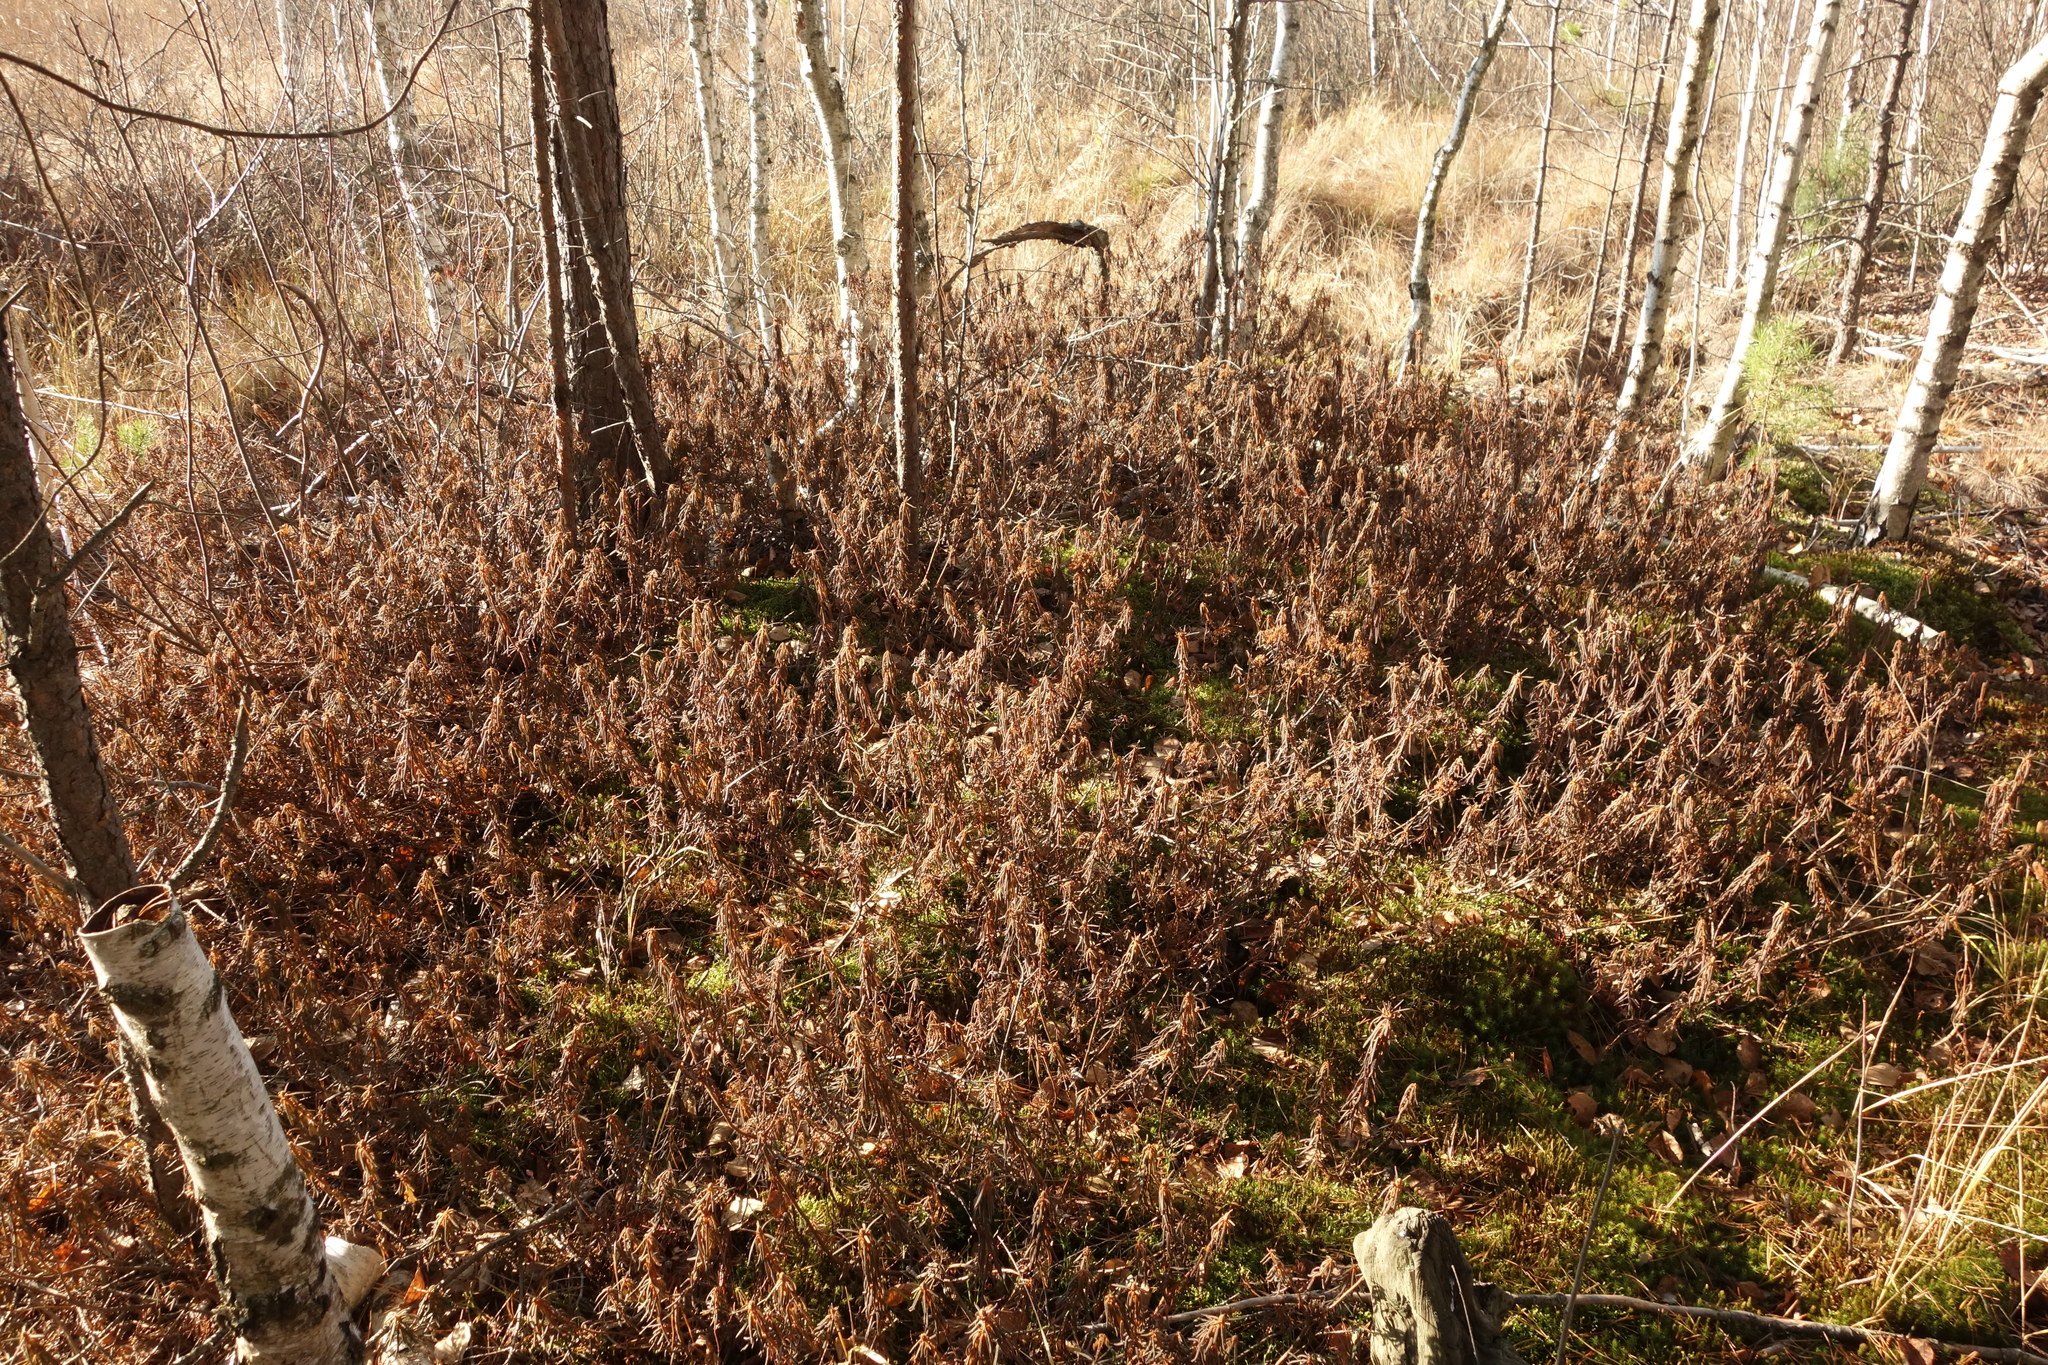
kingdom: Plantae
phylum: Tracheophyta
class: Magnoliopsida
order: Ericales
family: Ericaceae
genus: Rhododendron
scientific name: Rhododendron tomentosum
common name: Marsh labrador tea
